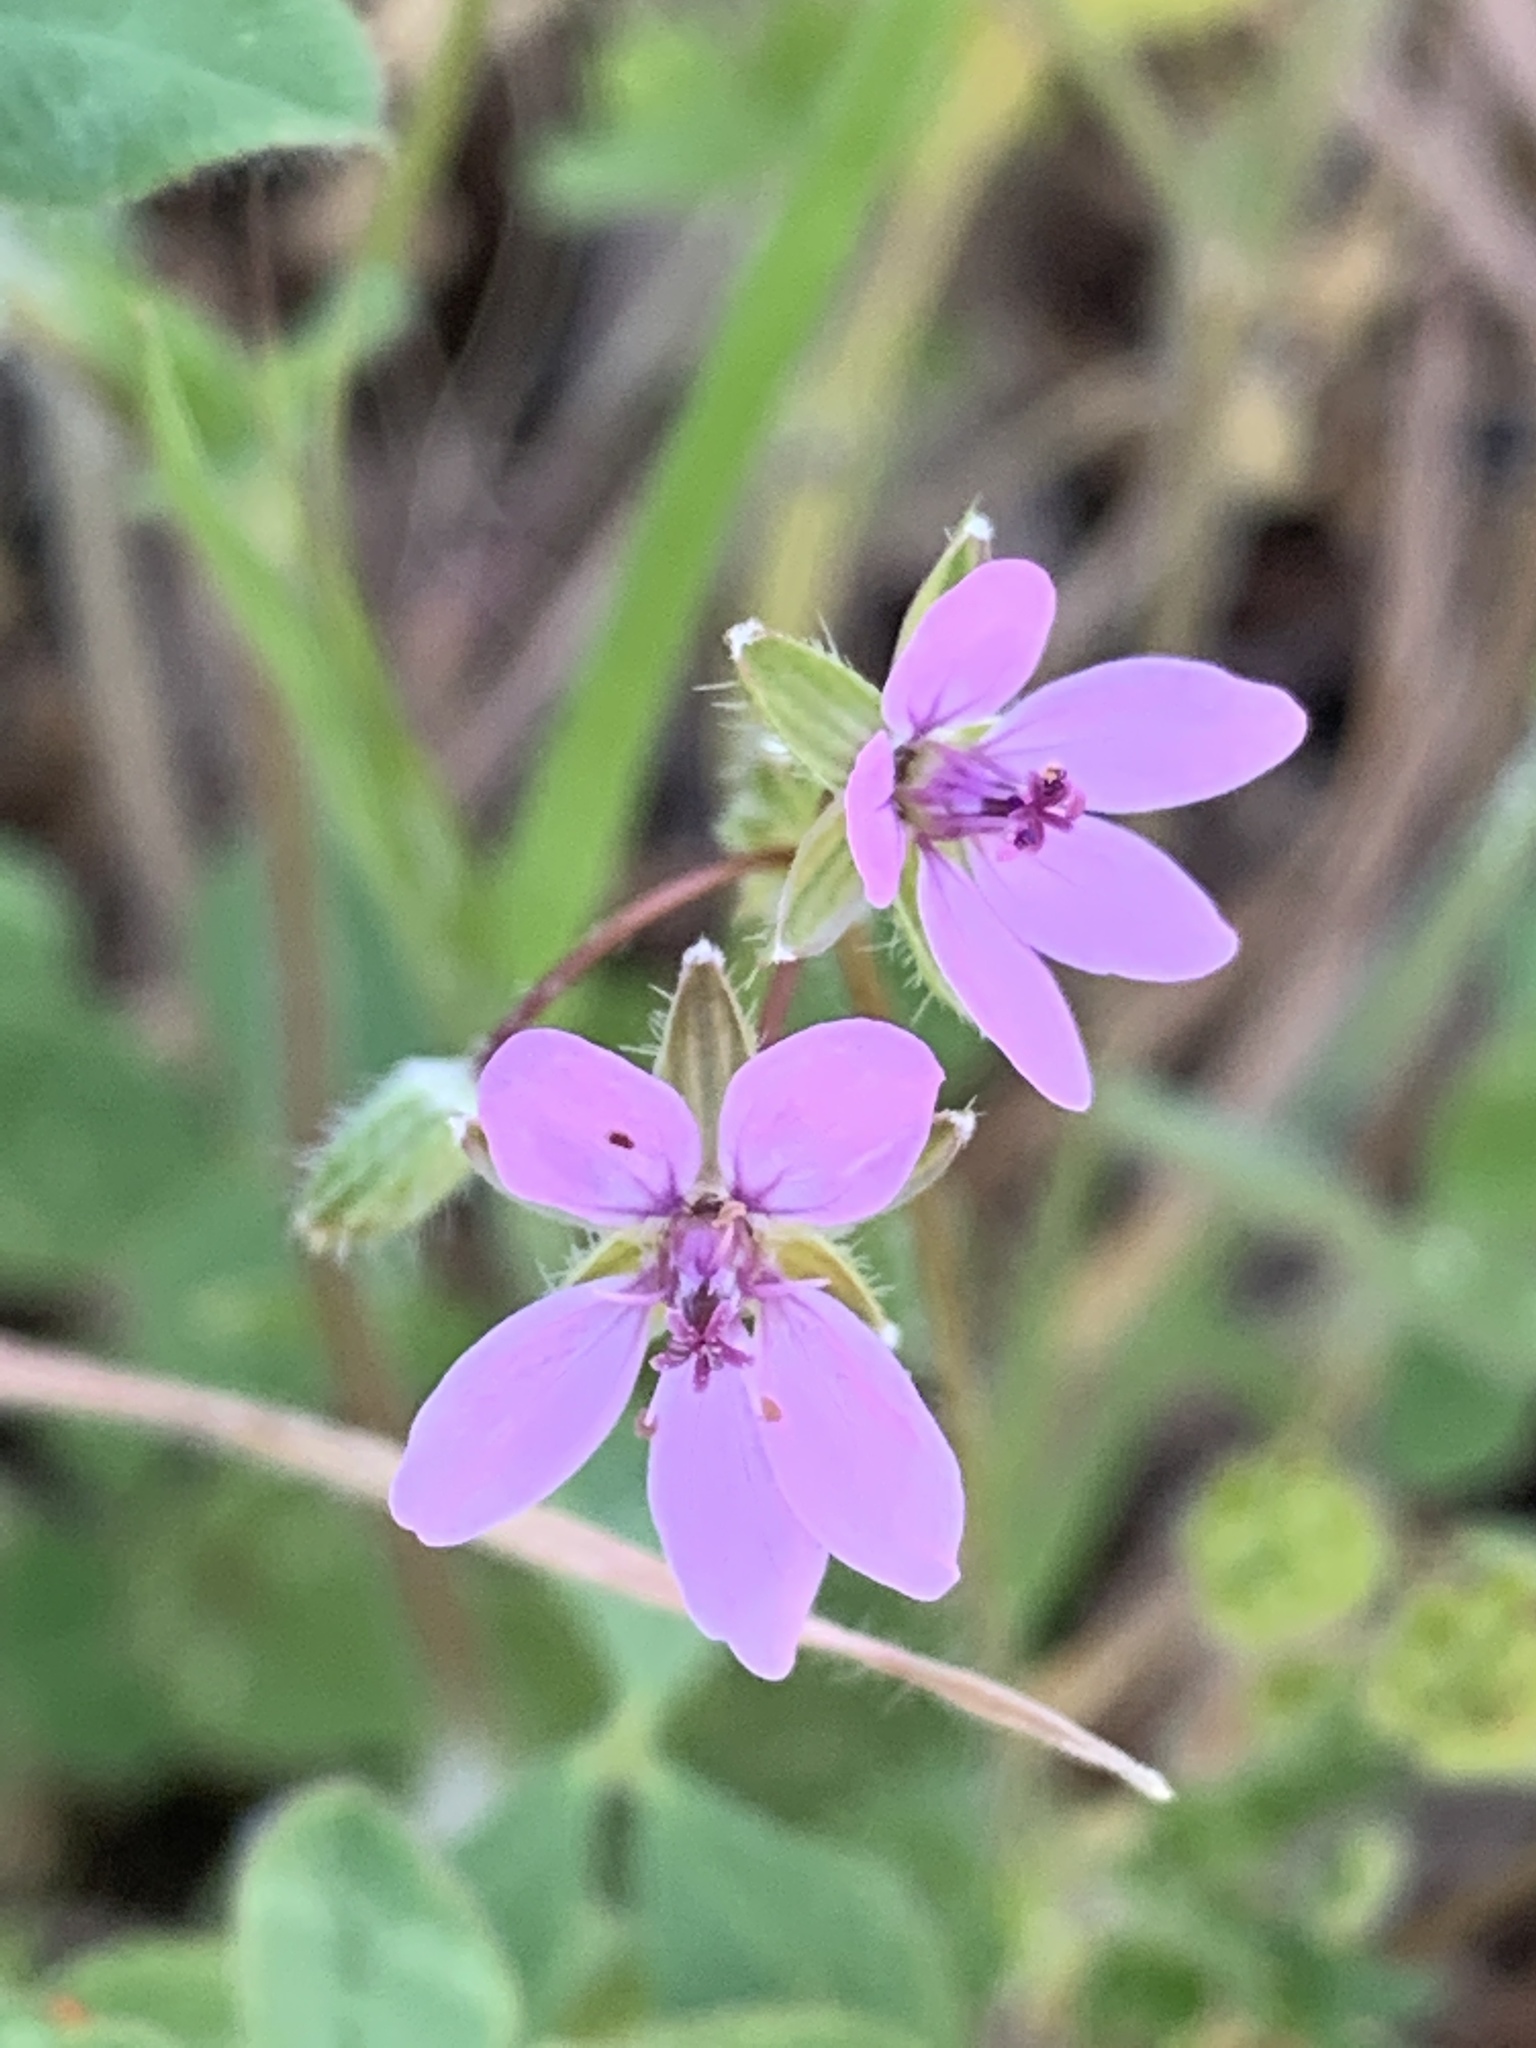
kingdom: Plantae
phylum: Tracheophyta
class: Magnoliopsida
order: Geraniales
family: Geraniaceae
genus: Erodium
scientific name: Erodium cicutarium
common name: Common stork's-bill
